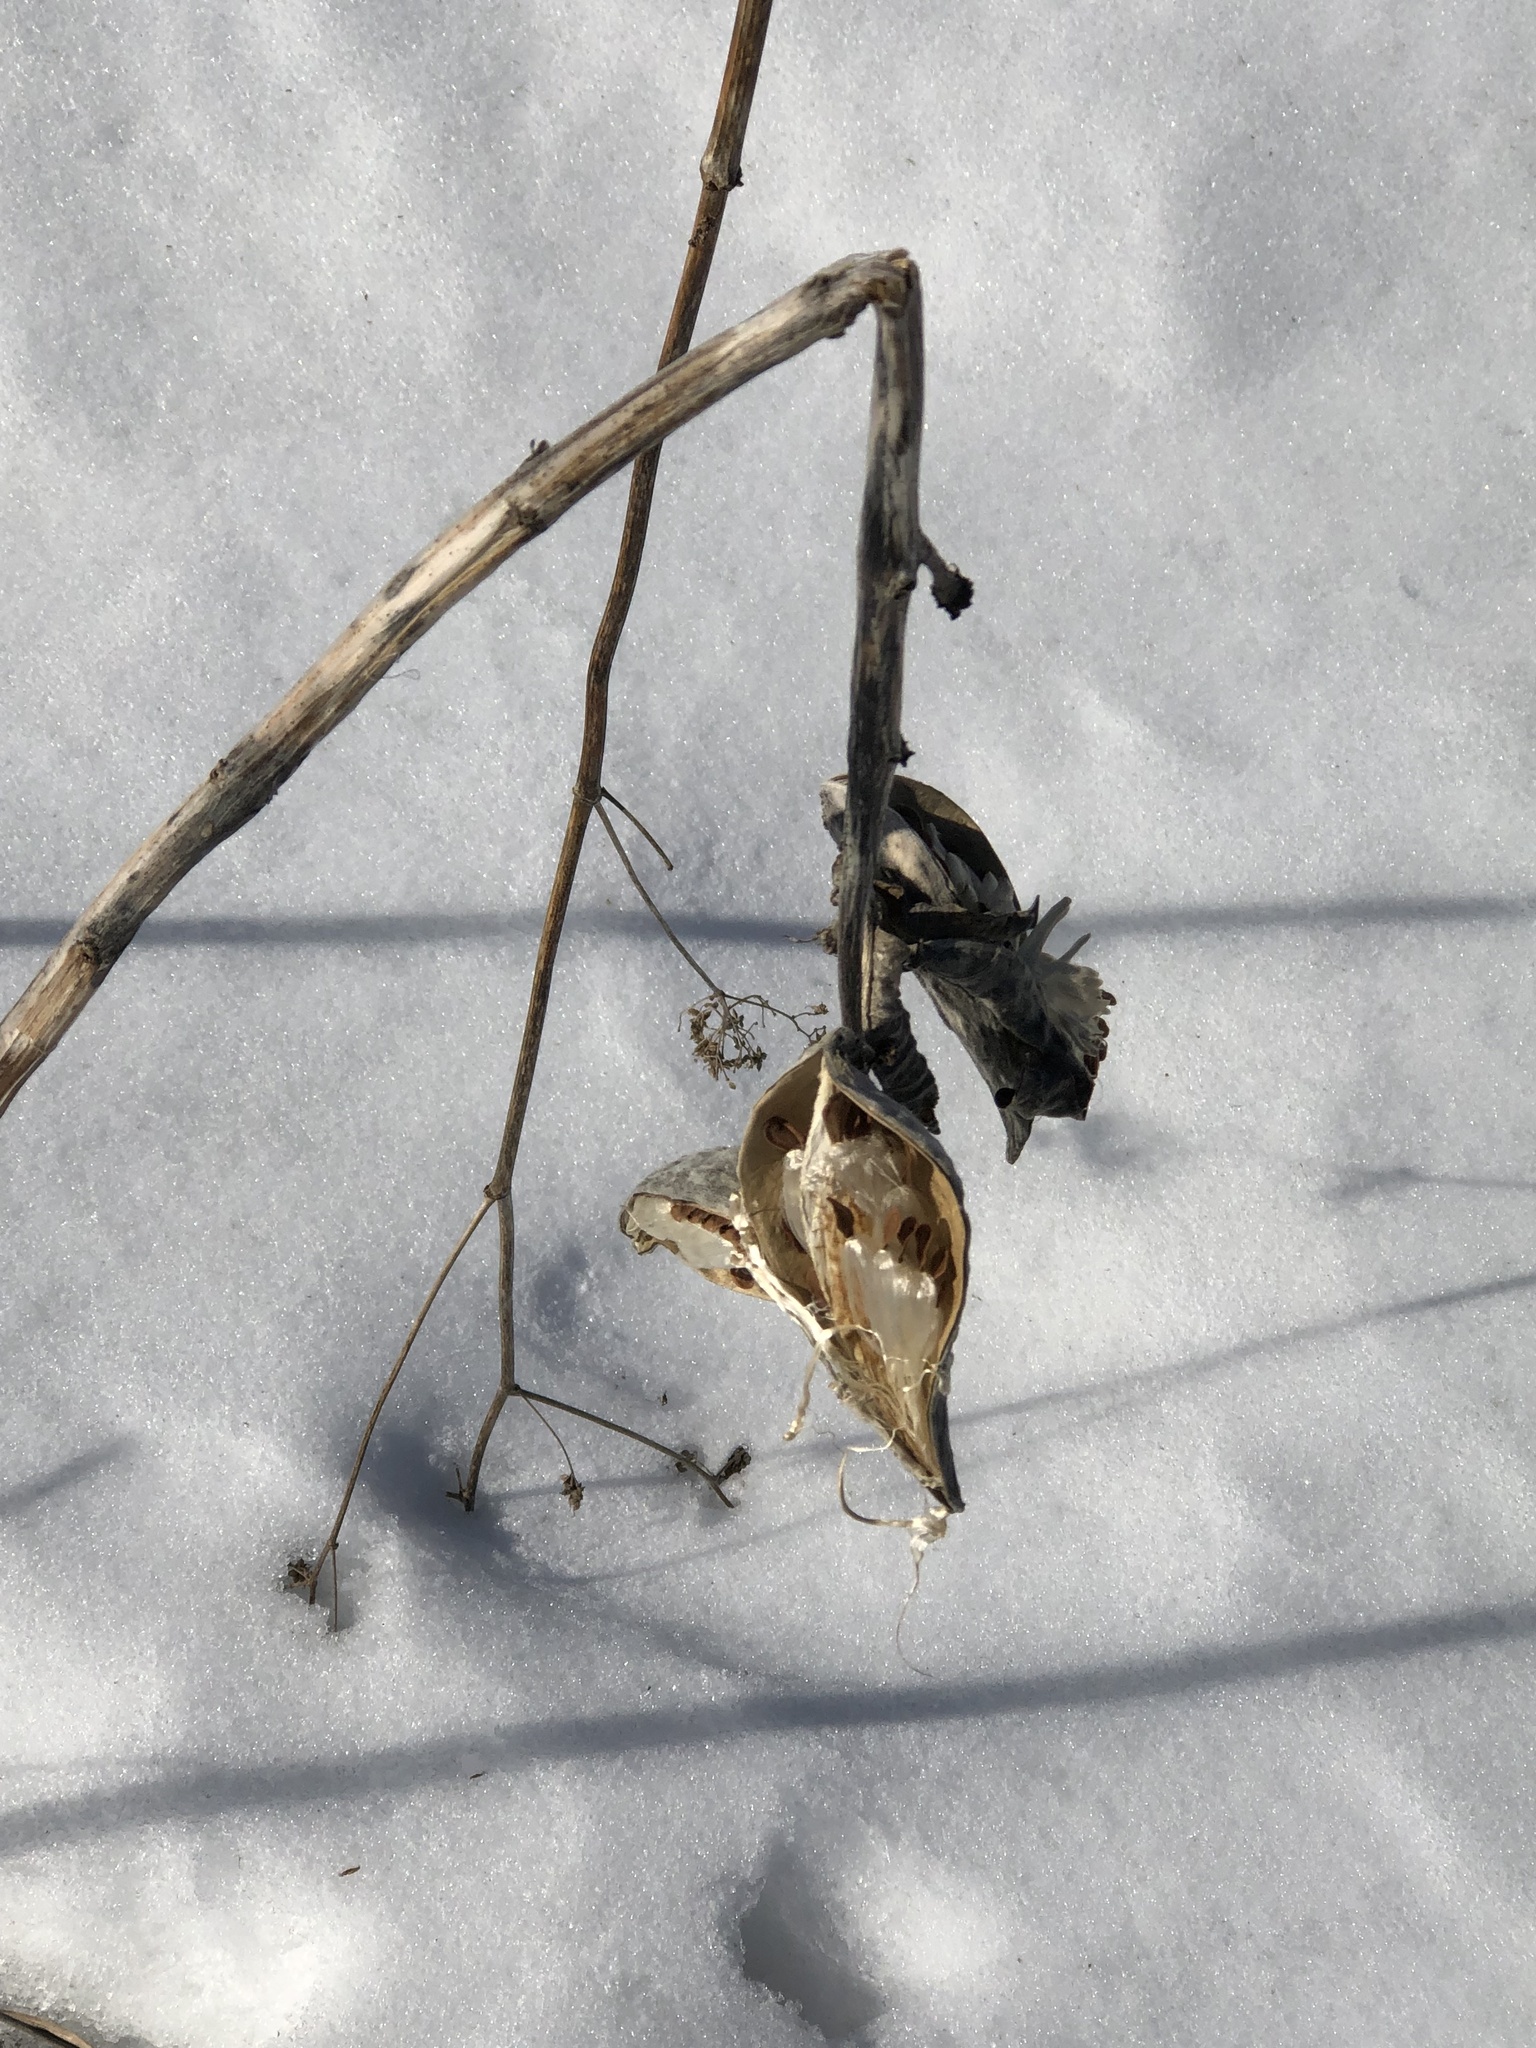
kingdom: Plantae
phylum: Tracheophyta
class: Magnoliopsida
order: Gentianales
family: Apocynaceae
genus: Asclepias
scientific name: Asclepias syriaca
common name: Common milkweed
